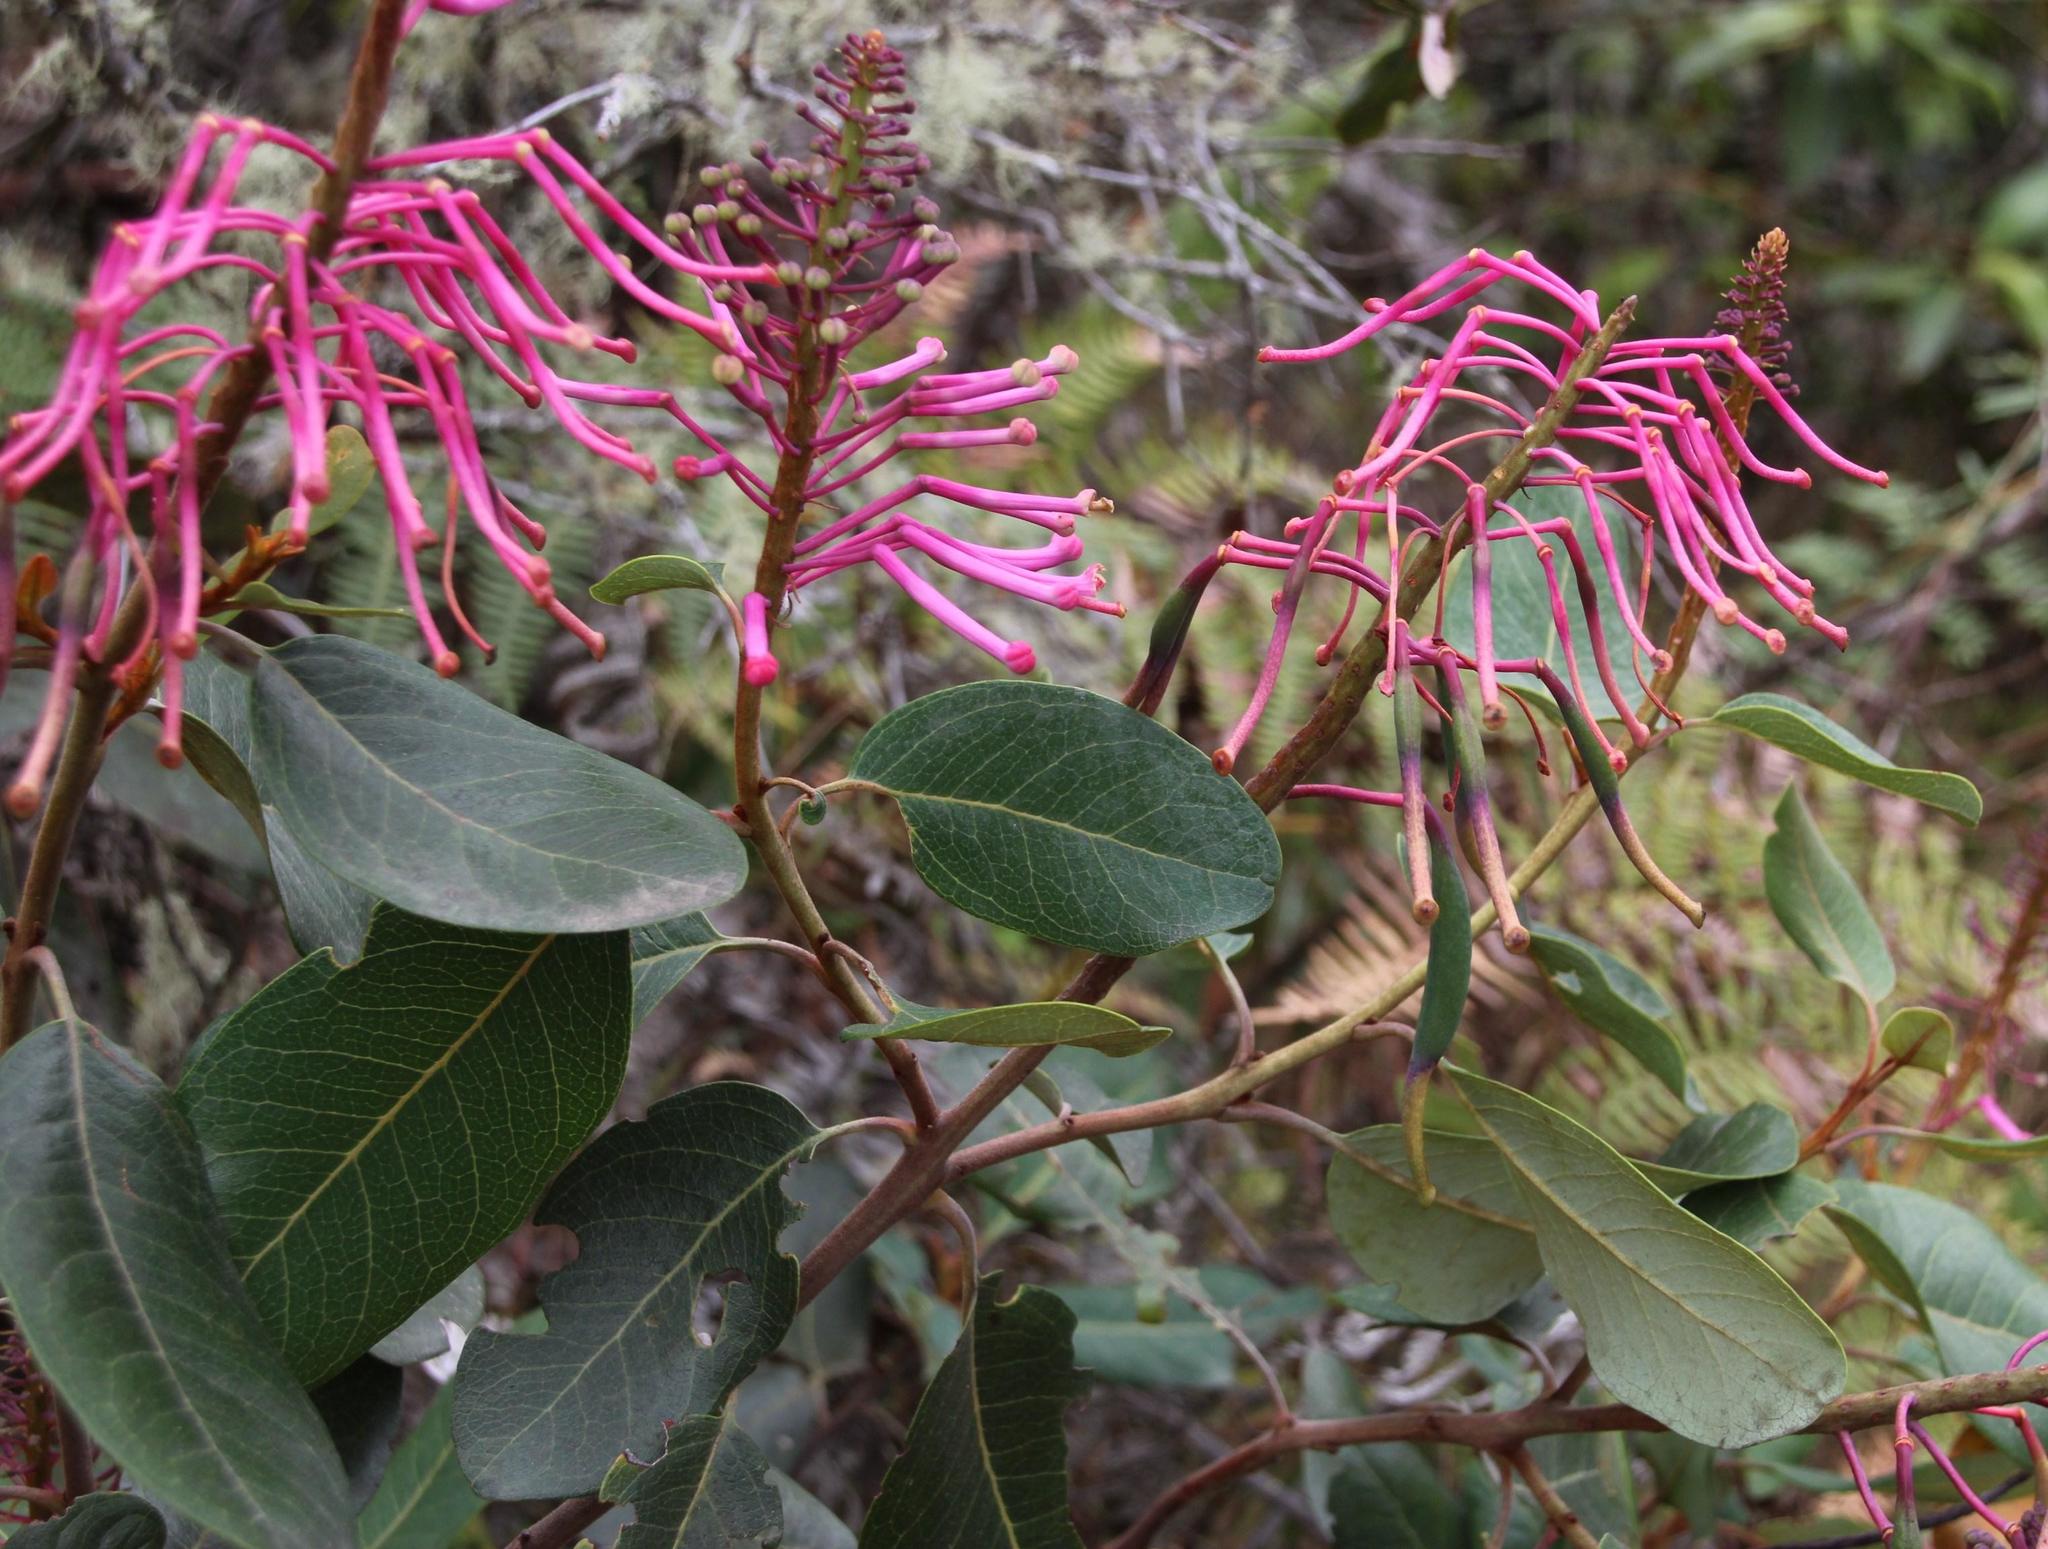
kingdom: Plantae
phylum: Tracheophyta
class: Magnoliopsida
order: Proteales
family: Proteaceae
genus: Oreocallis
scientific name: Oreocallis grandiflora
